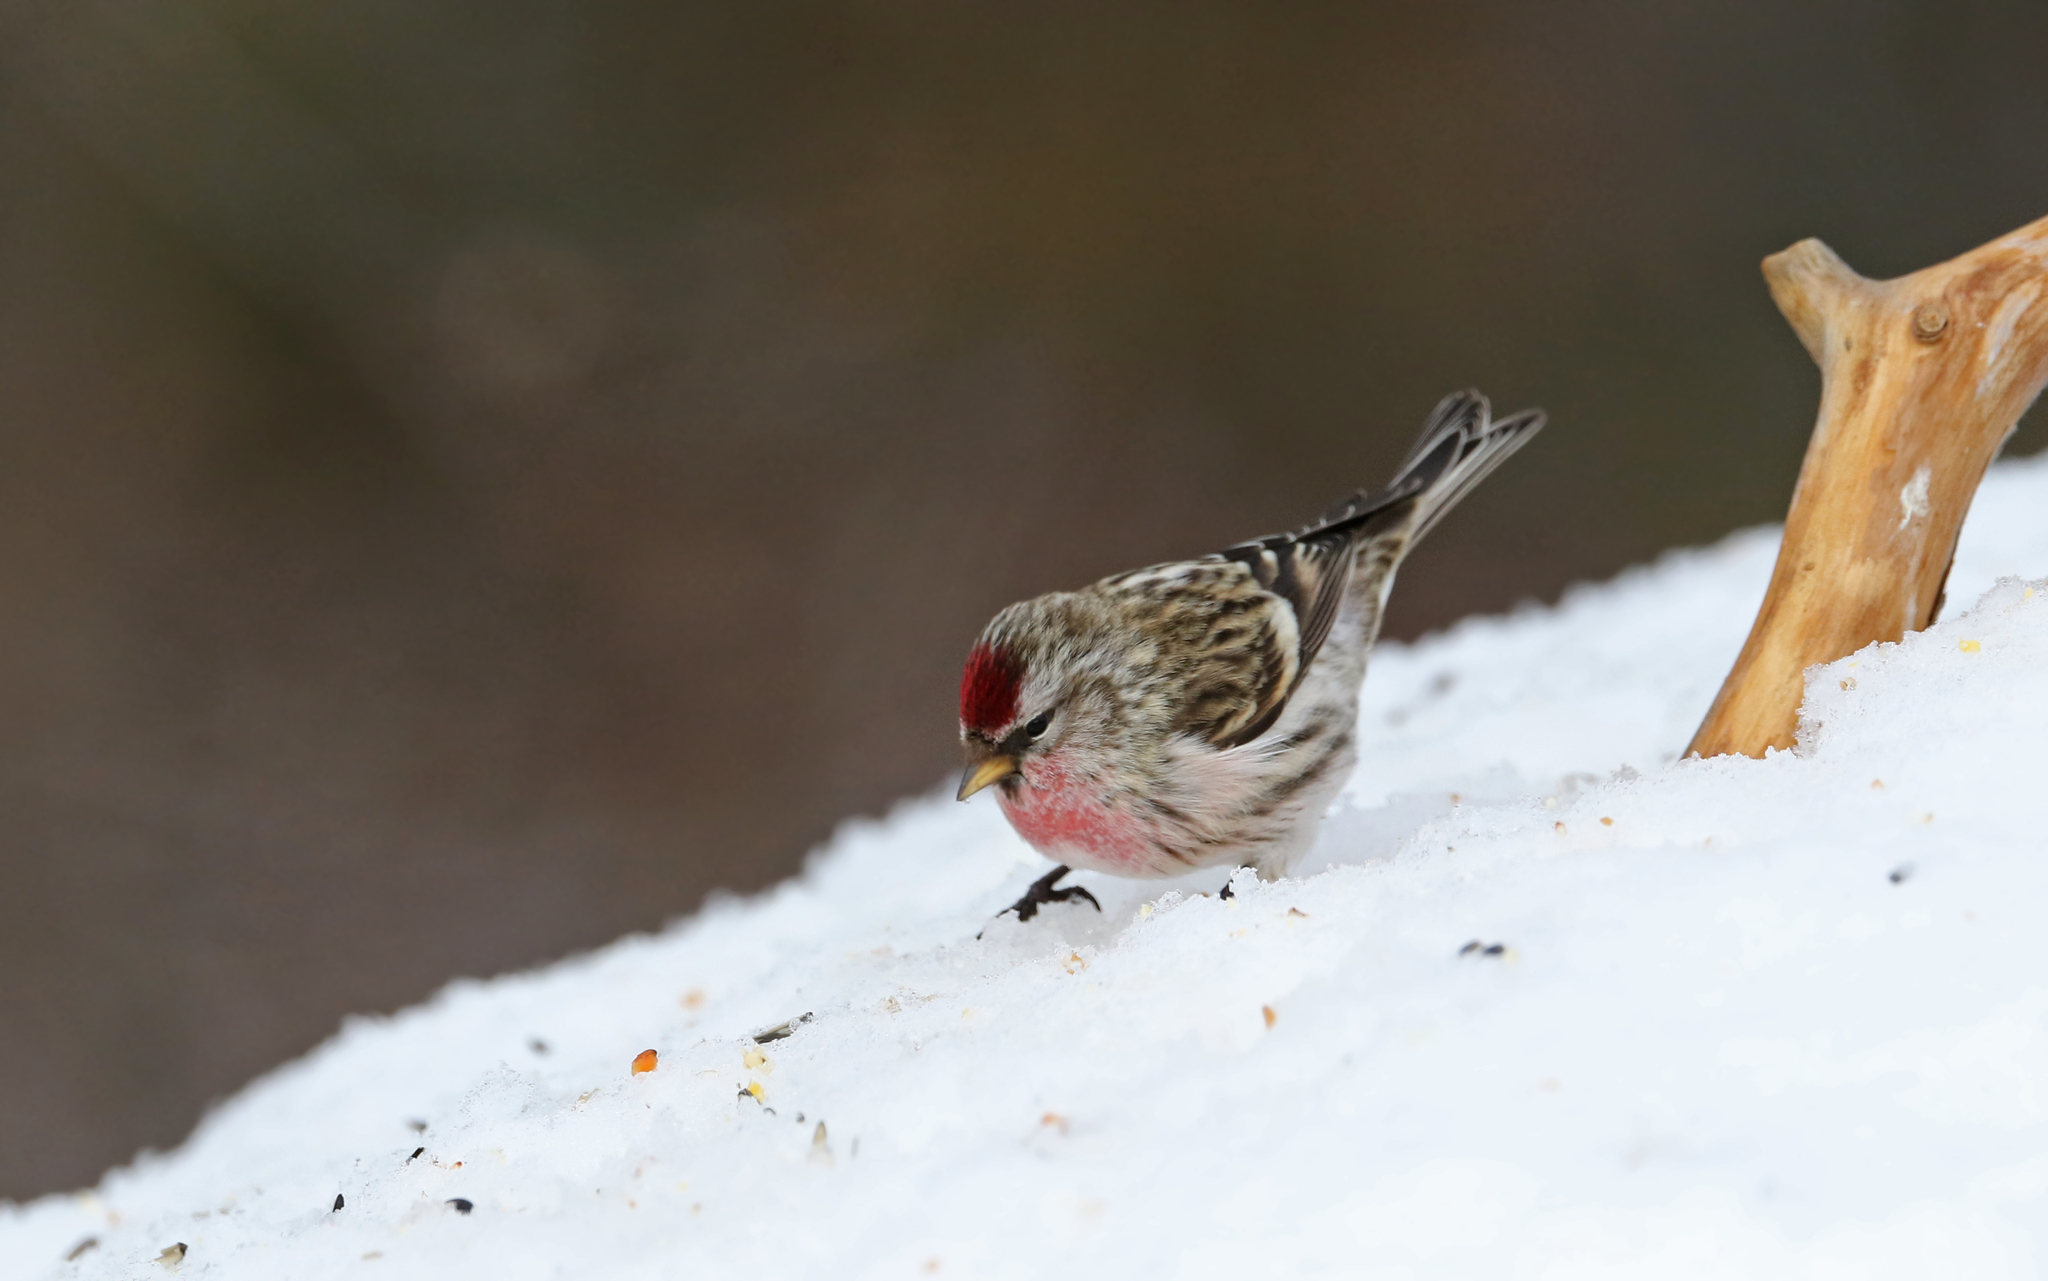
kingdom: Animalia
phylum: Chordata
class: Aves
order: Passeriformes
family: Fringillidae
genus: Acanthis
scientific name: Acanthis flammea
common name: Common redpoll
